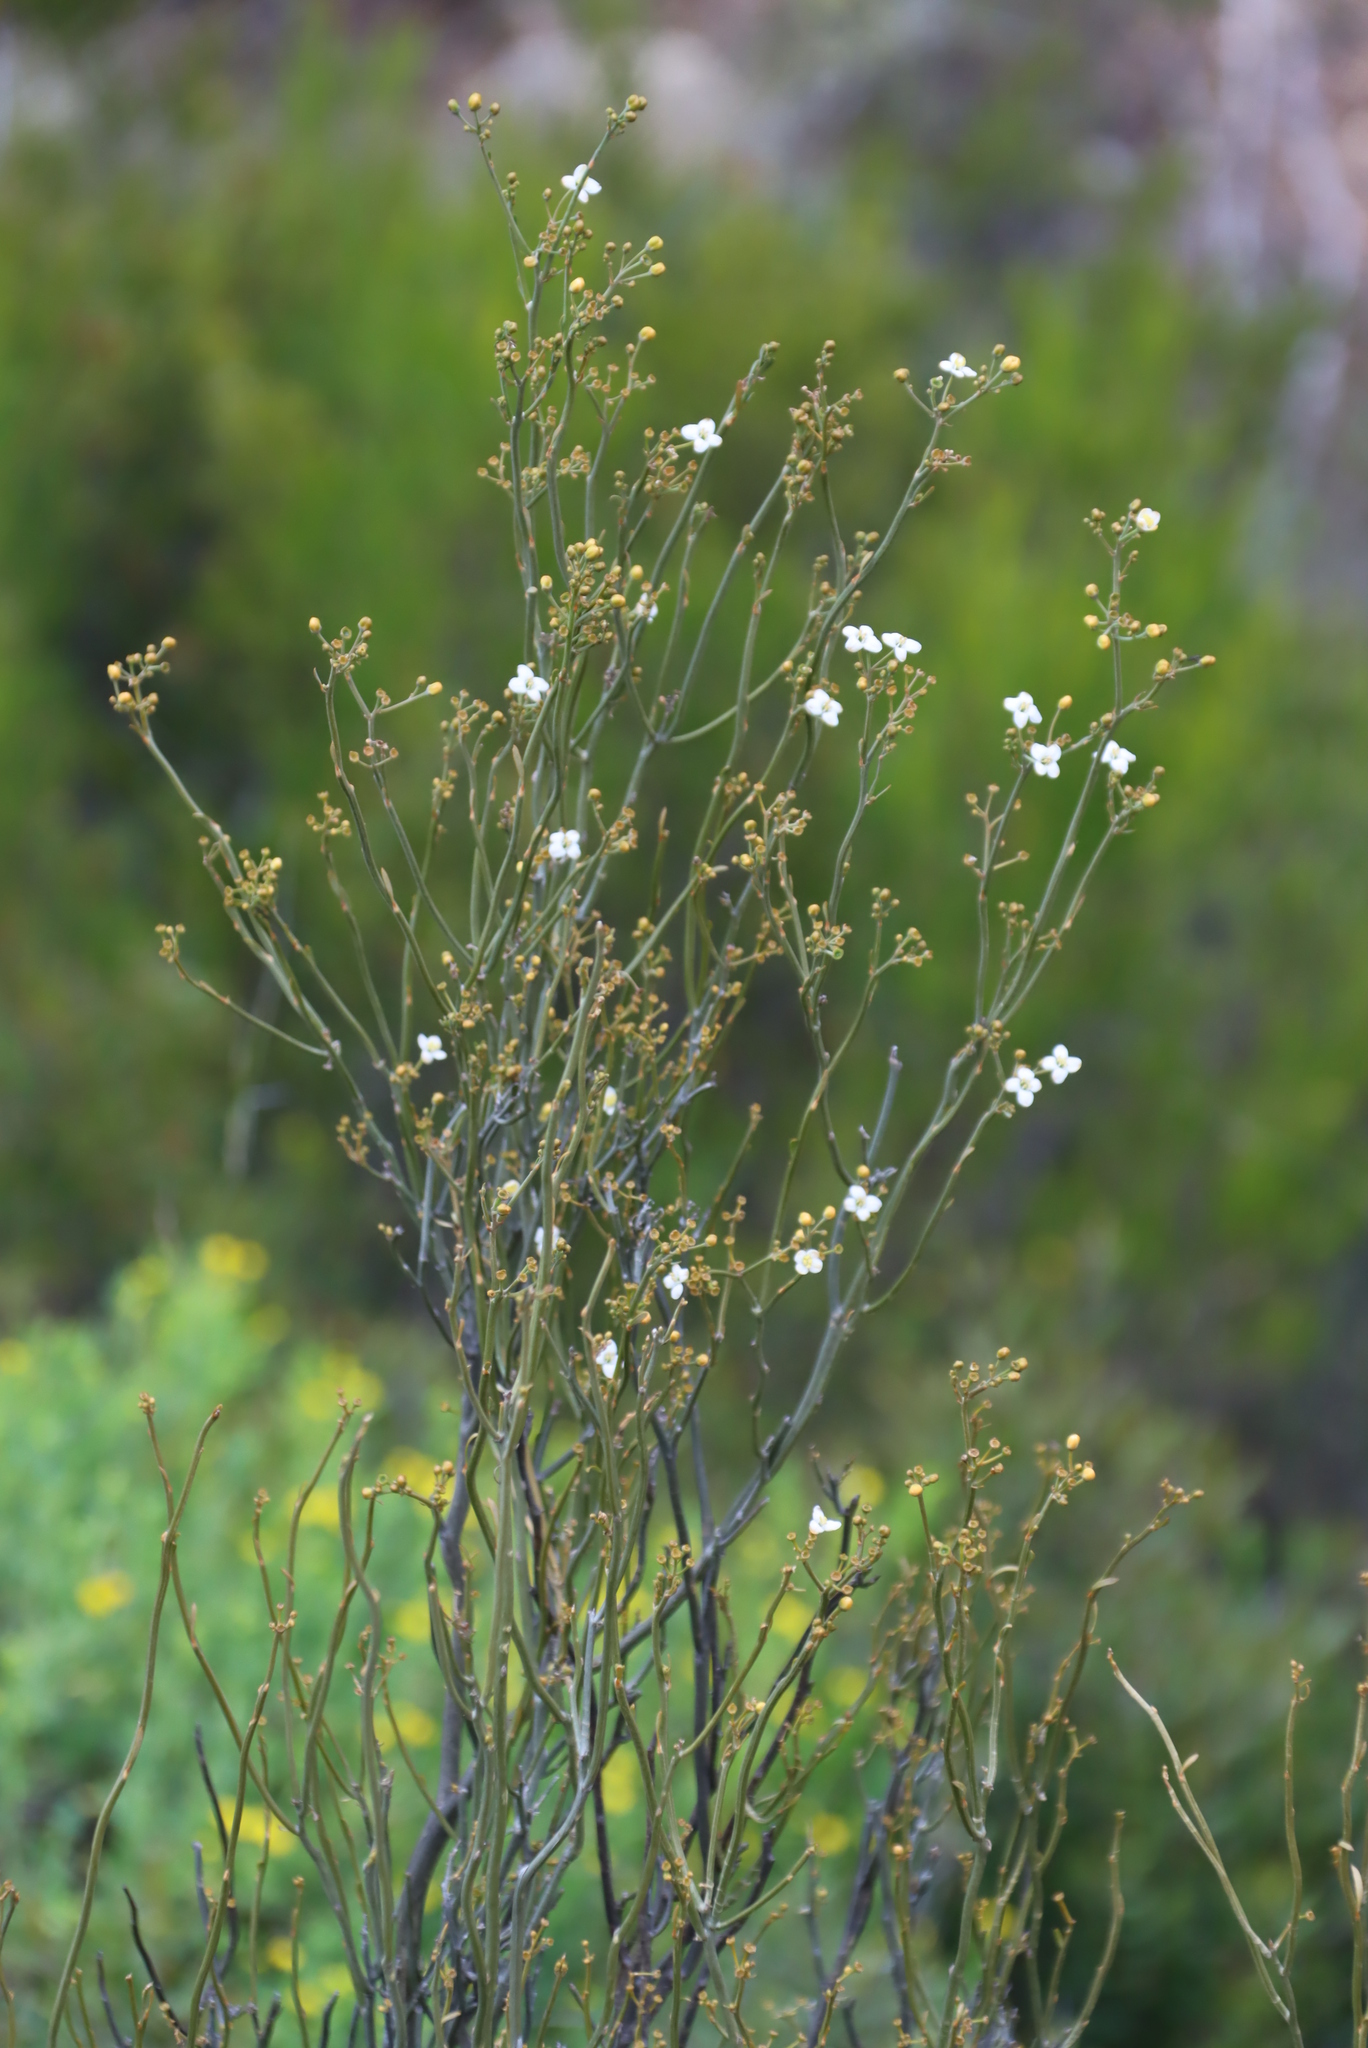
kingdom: Plantae
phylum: Tracheophyta
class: Magnoliopsida
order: Solanales
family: Montiniaceae
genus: Montinia
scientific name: Montinia caryophyllacea
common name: Wild clove-bush
